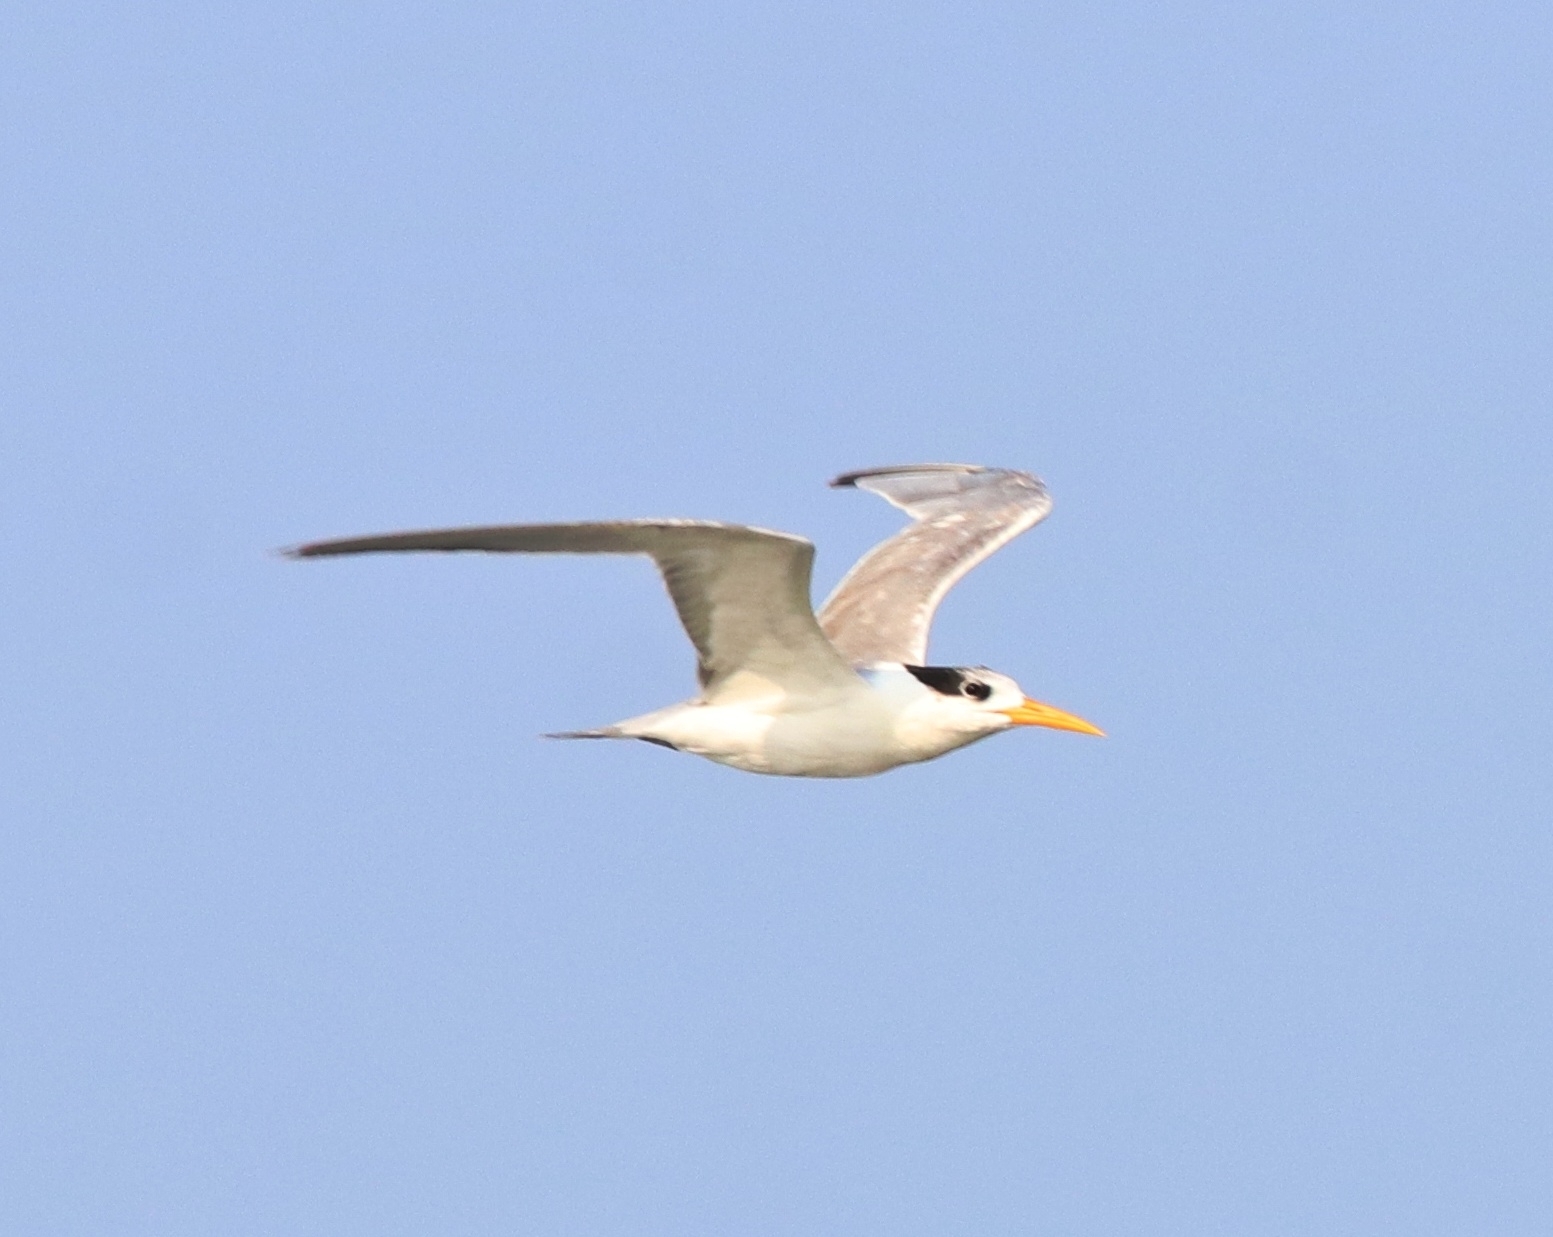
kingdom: Animalia
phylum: Chordata
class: Aves
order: Charadriiformes
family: Laridae
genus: Thalasseus
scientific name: Thalasseus bengalensis
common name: Lesser crested tern
